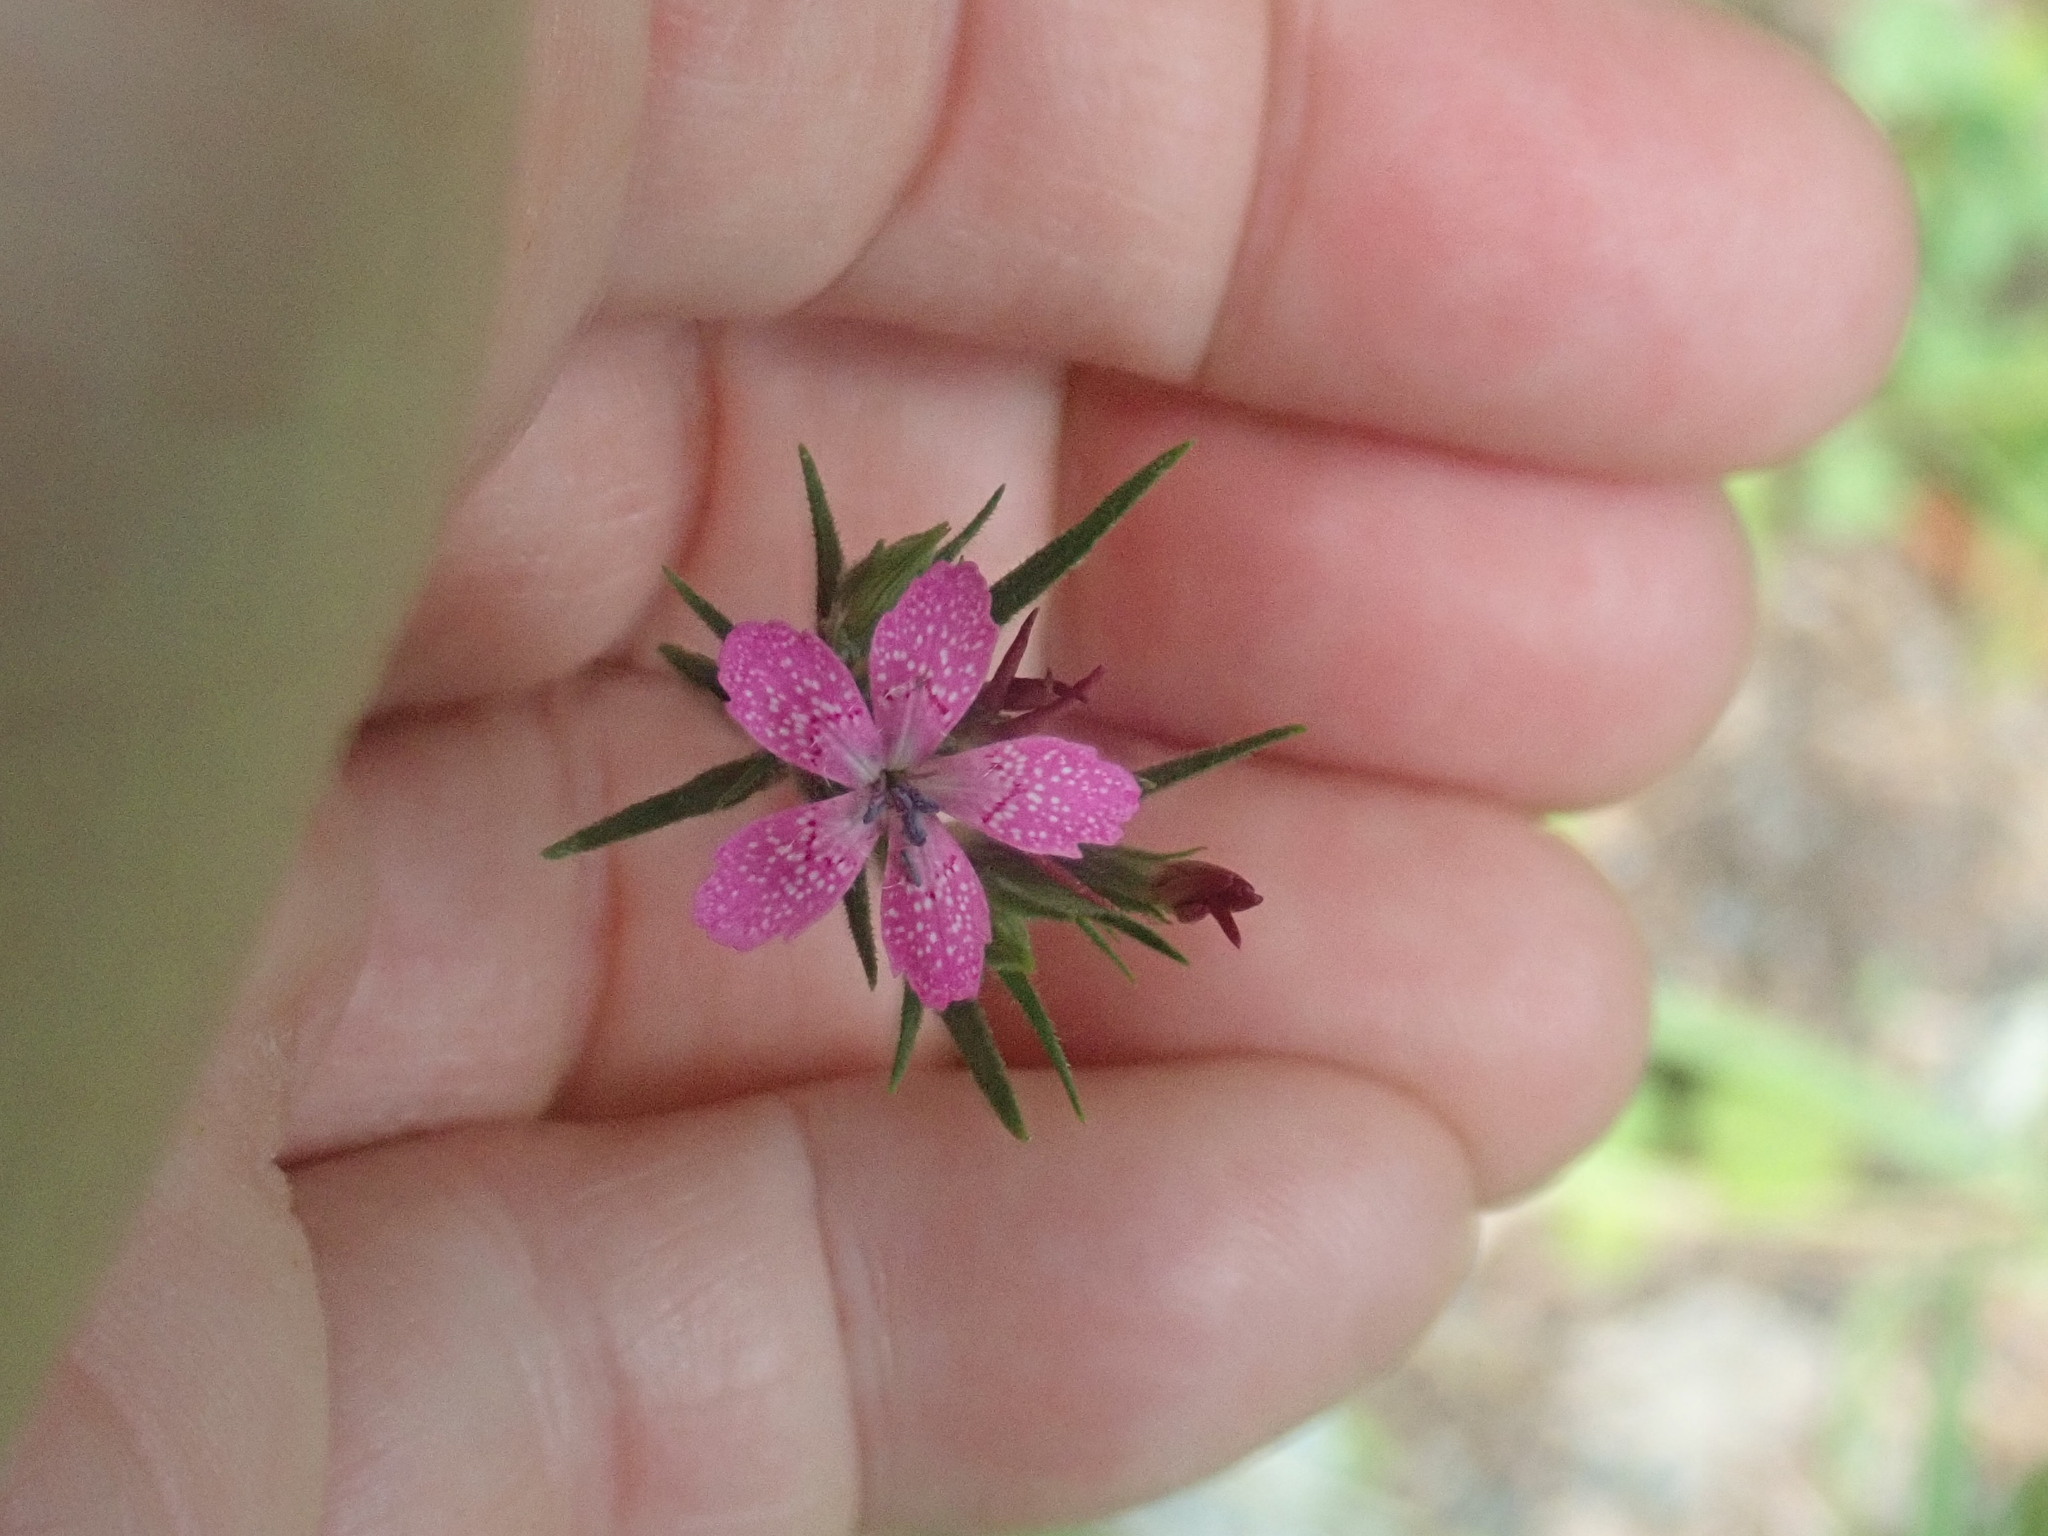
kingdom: Plantae
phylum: Tracheophyta
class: Magnoliopsida
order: Caryophyllales
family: Caryophyllaceae
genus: Dianthus
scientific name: Dianthus armeria
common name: Deptford pink
